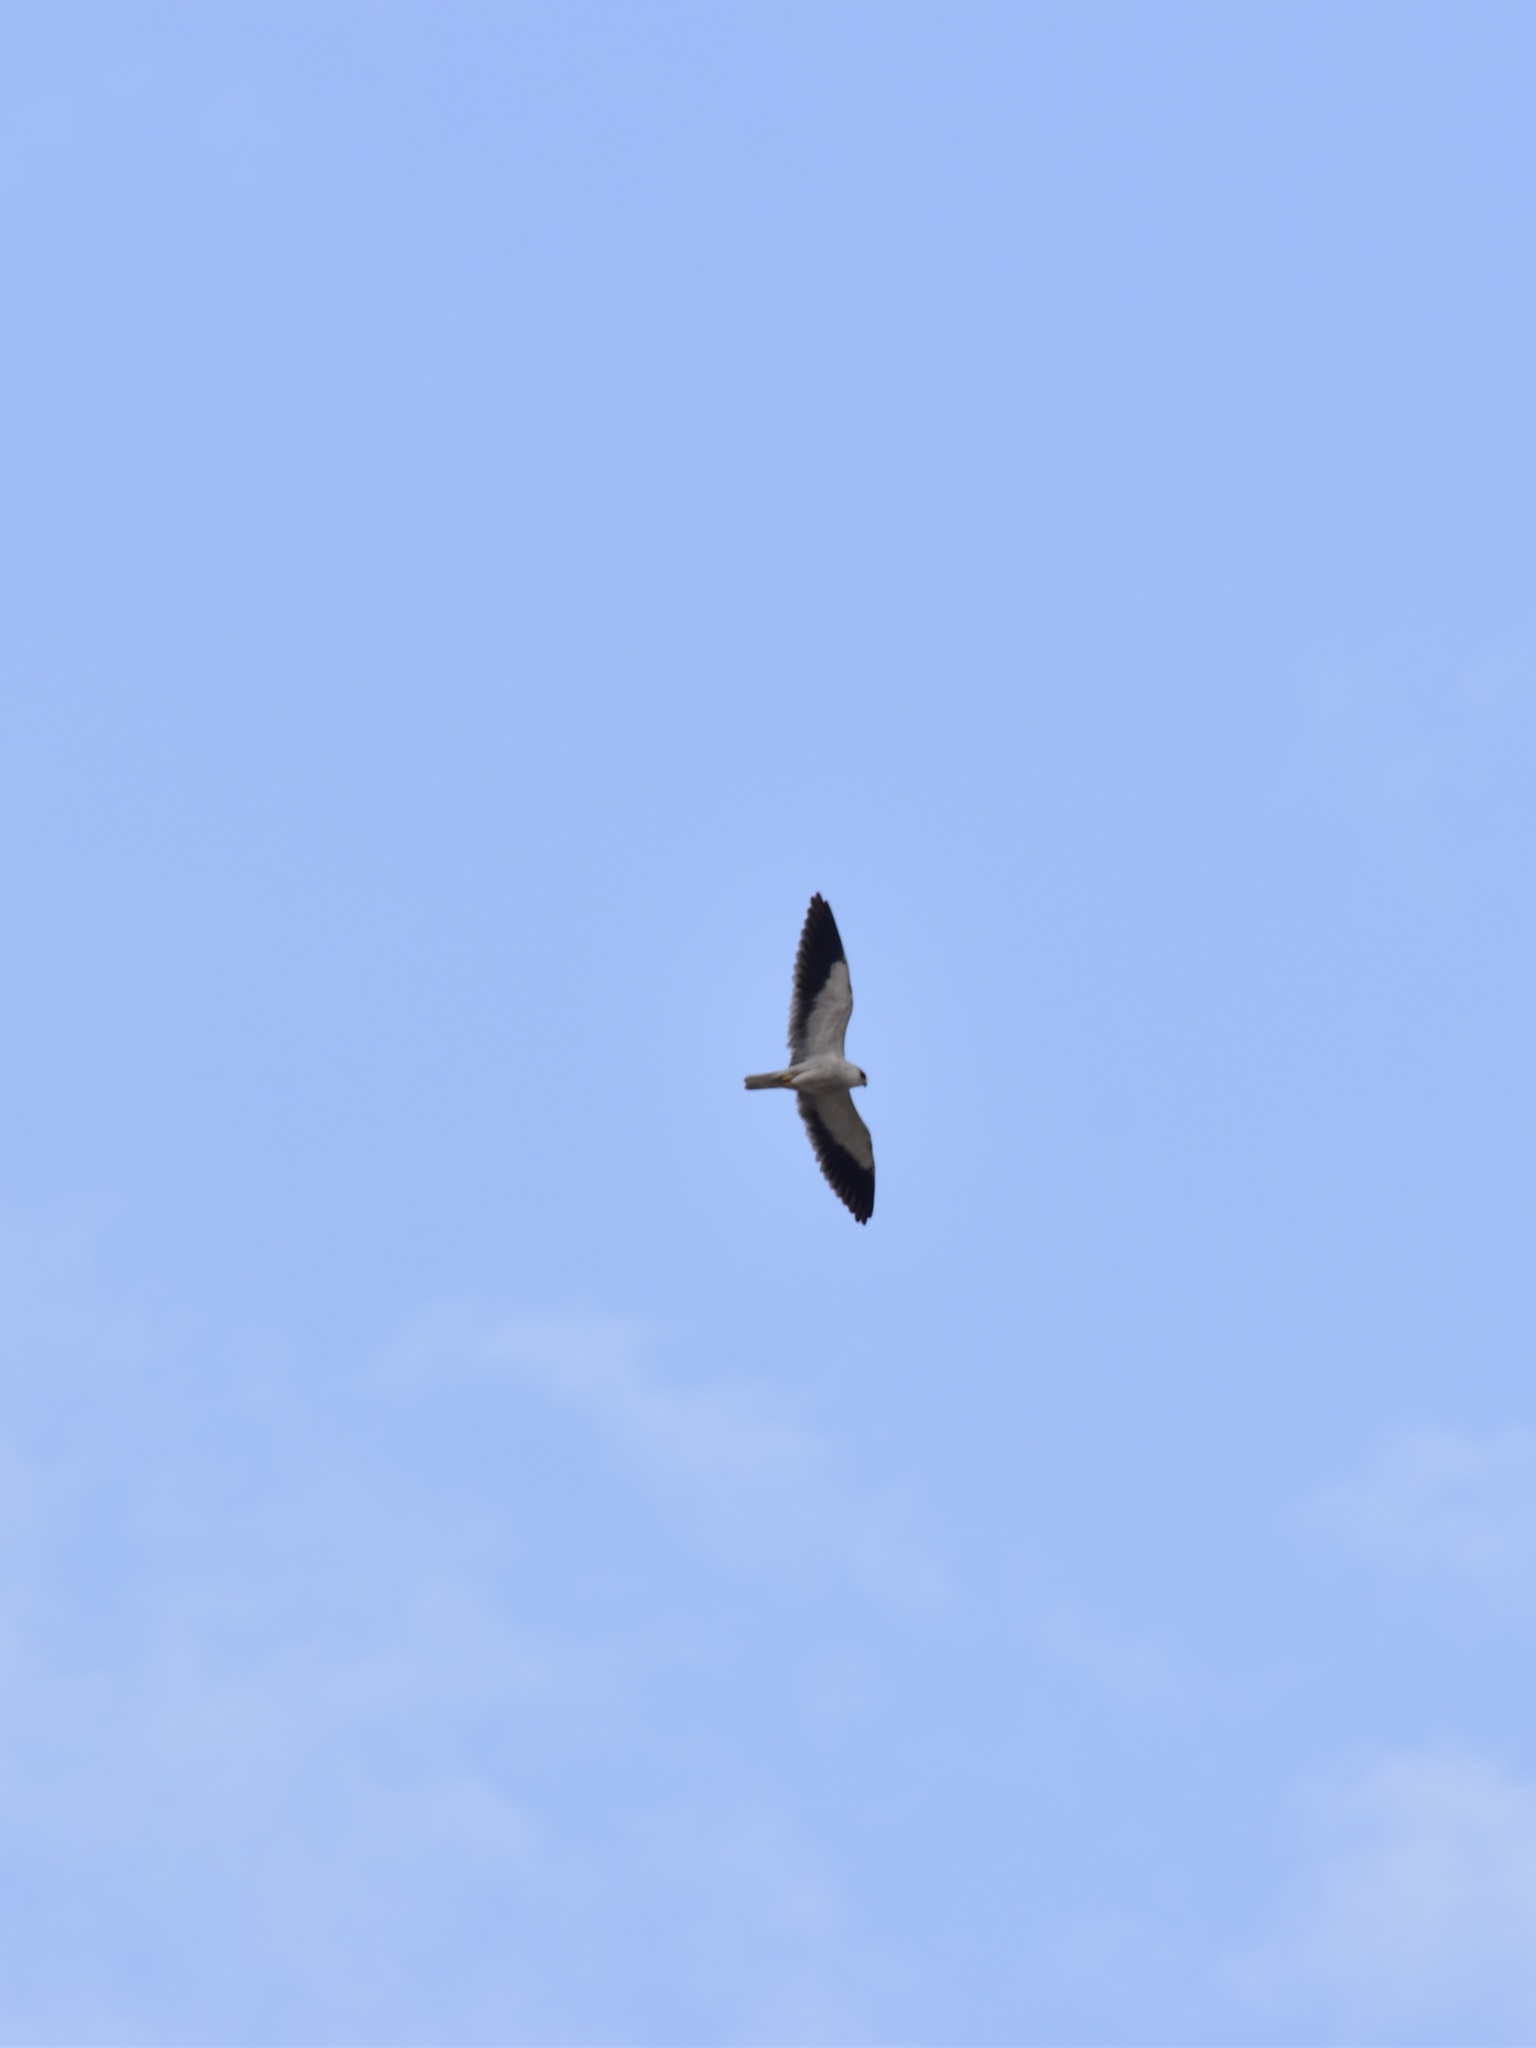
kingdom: Animalia
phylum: Chordata
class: Aves
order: Accipitriformes
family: Accipitridae
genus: Elanus
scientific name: Elanus caeruleus
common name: Black-winged kite
